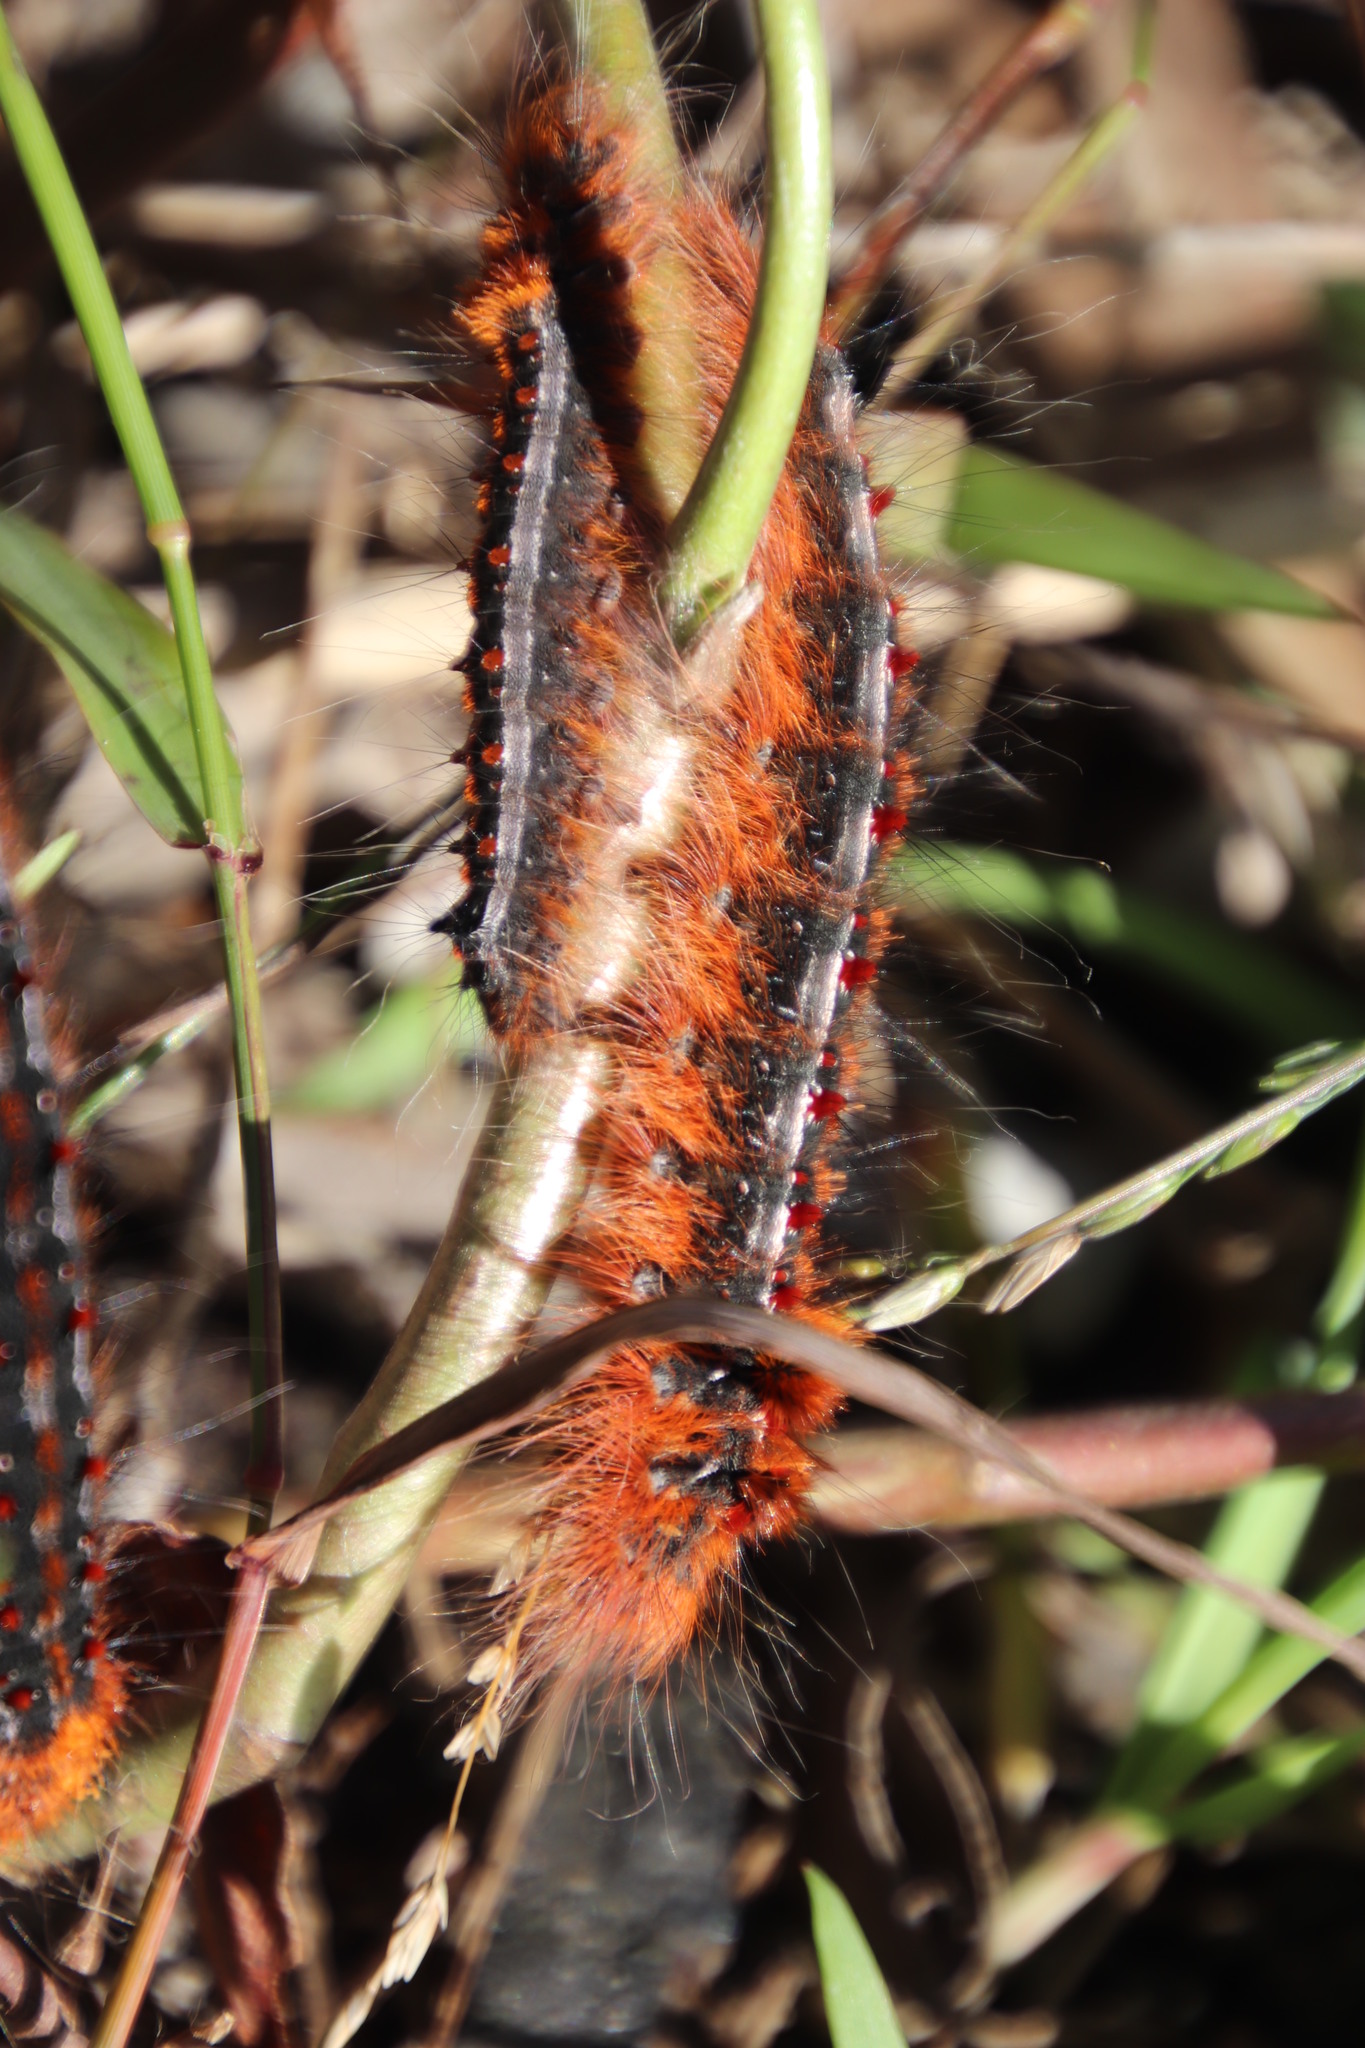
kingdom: Animalia
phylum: Arthropoda
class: Insecta
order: Lepidoptera
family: Lasiocampidae
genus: Streblote
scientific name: Streblote cristata
